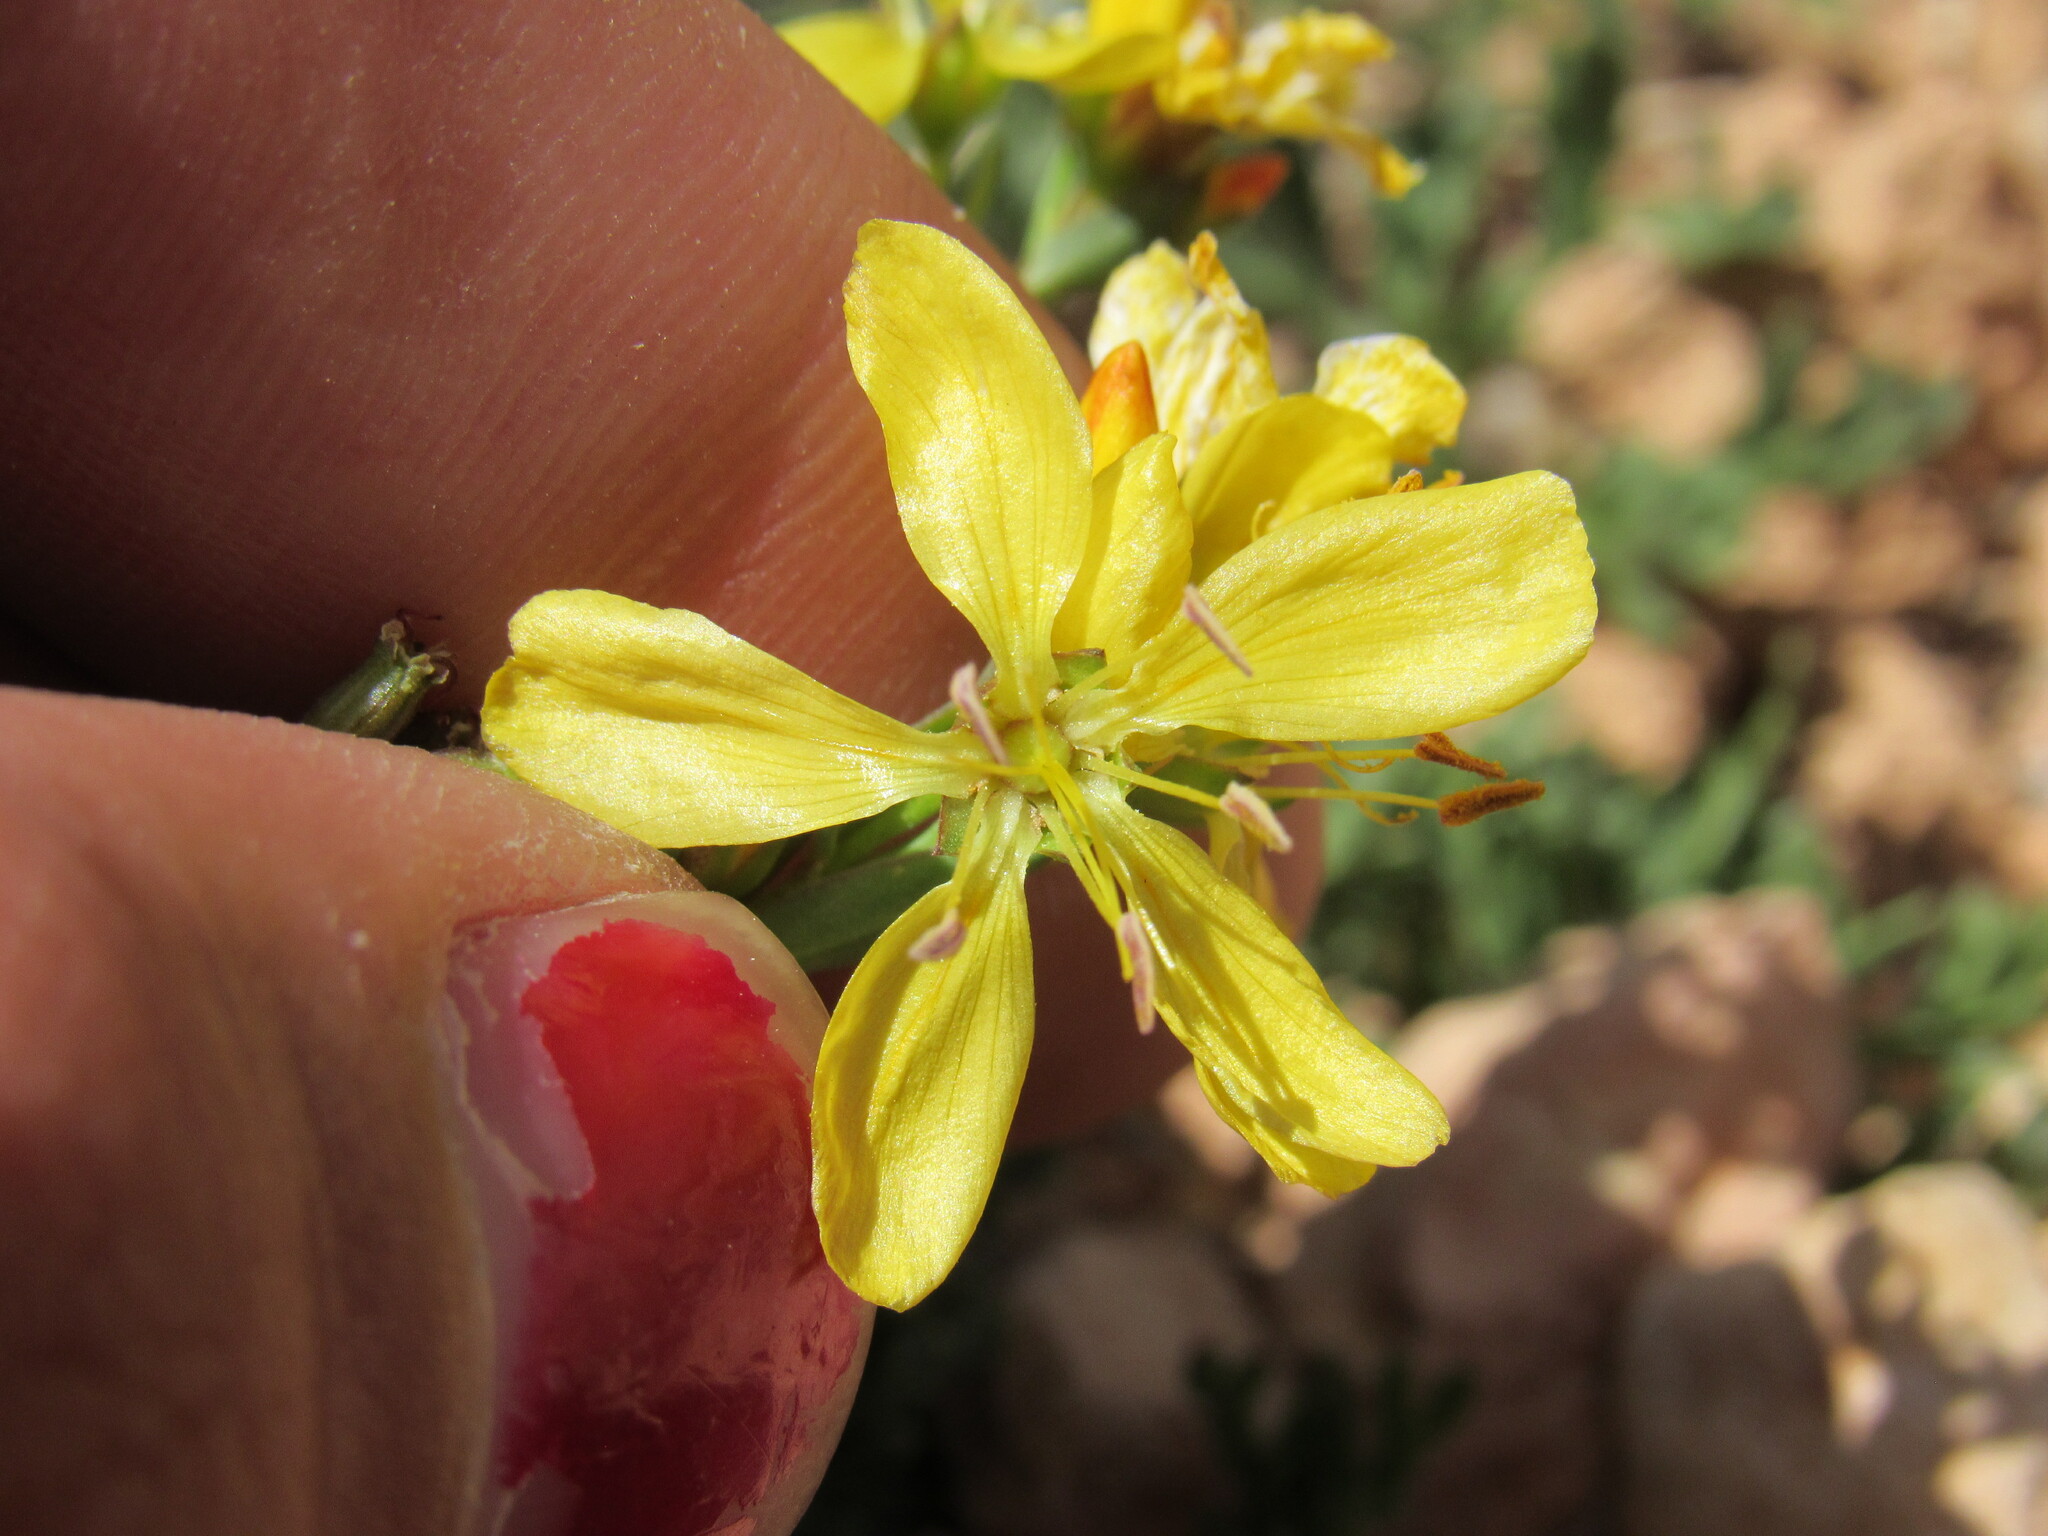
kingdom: Plantae
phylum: Tracheophyta
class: Magnoliopsida
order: Malpighiales
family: Linaceae
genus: Linum
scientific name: Linum kingii
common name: King's yellow flax
